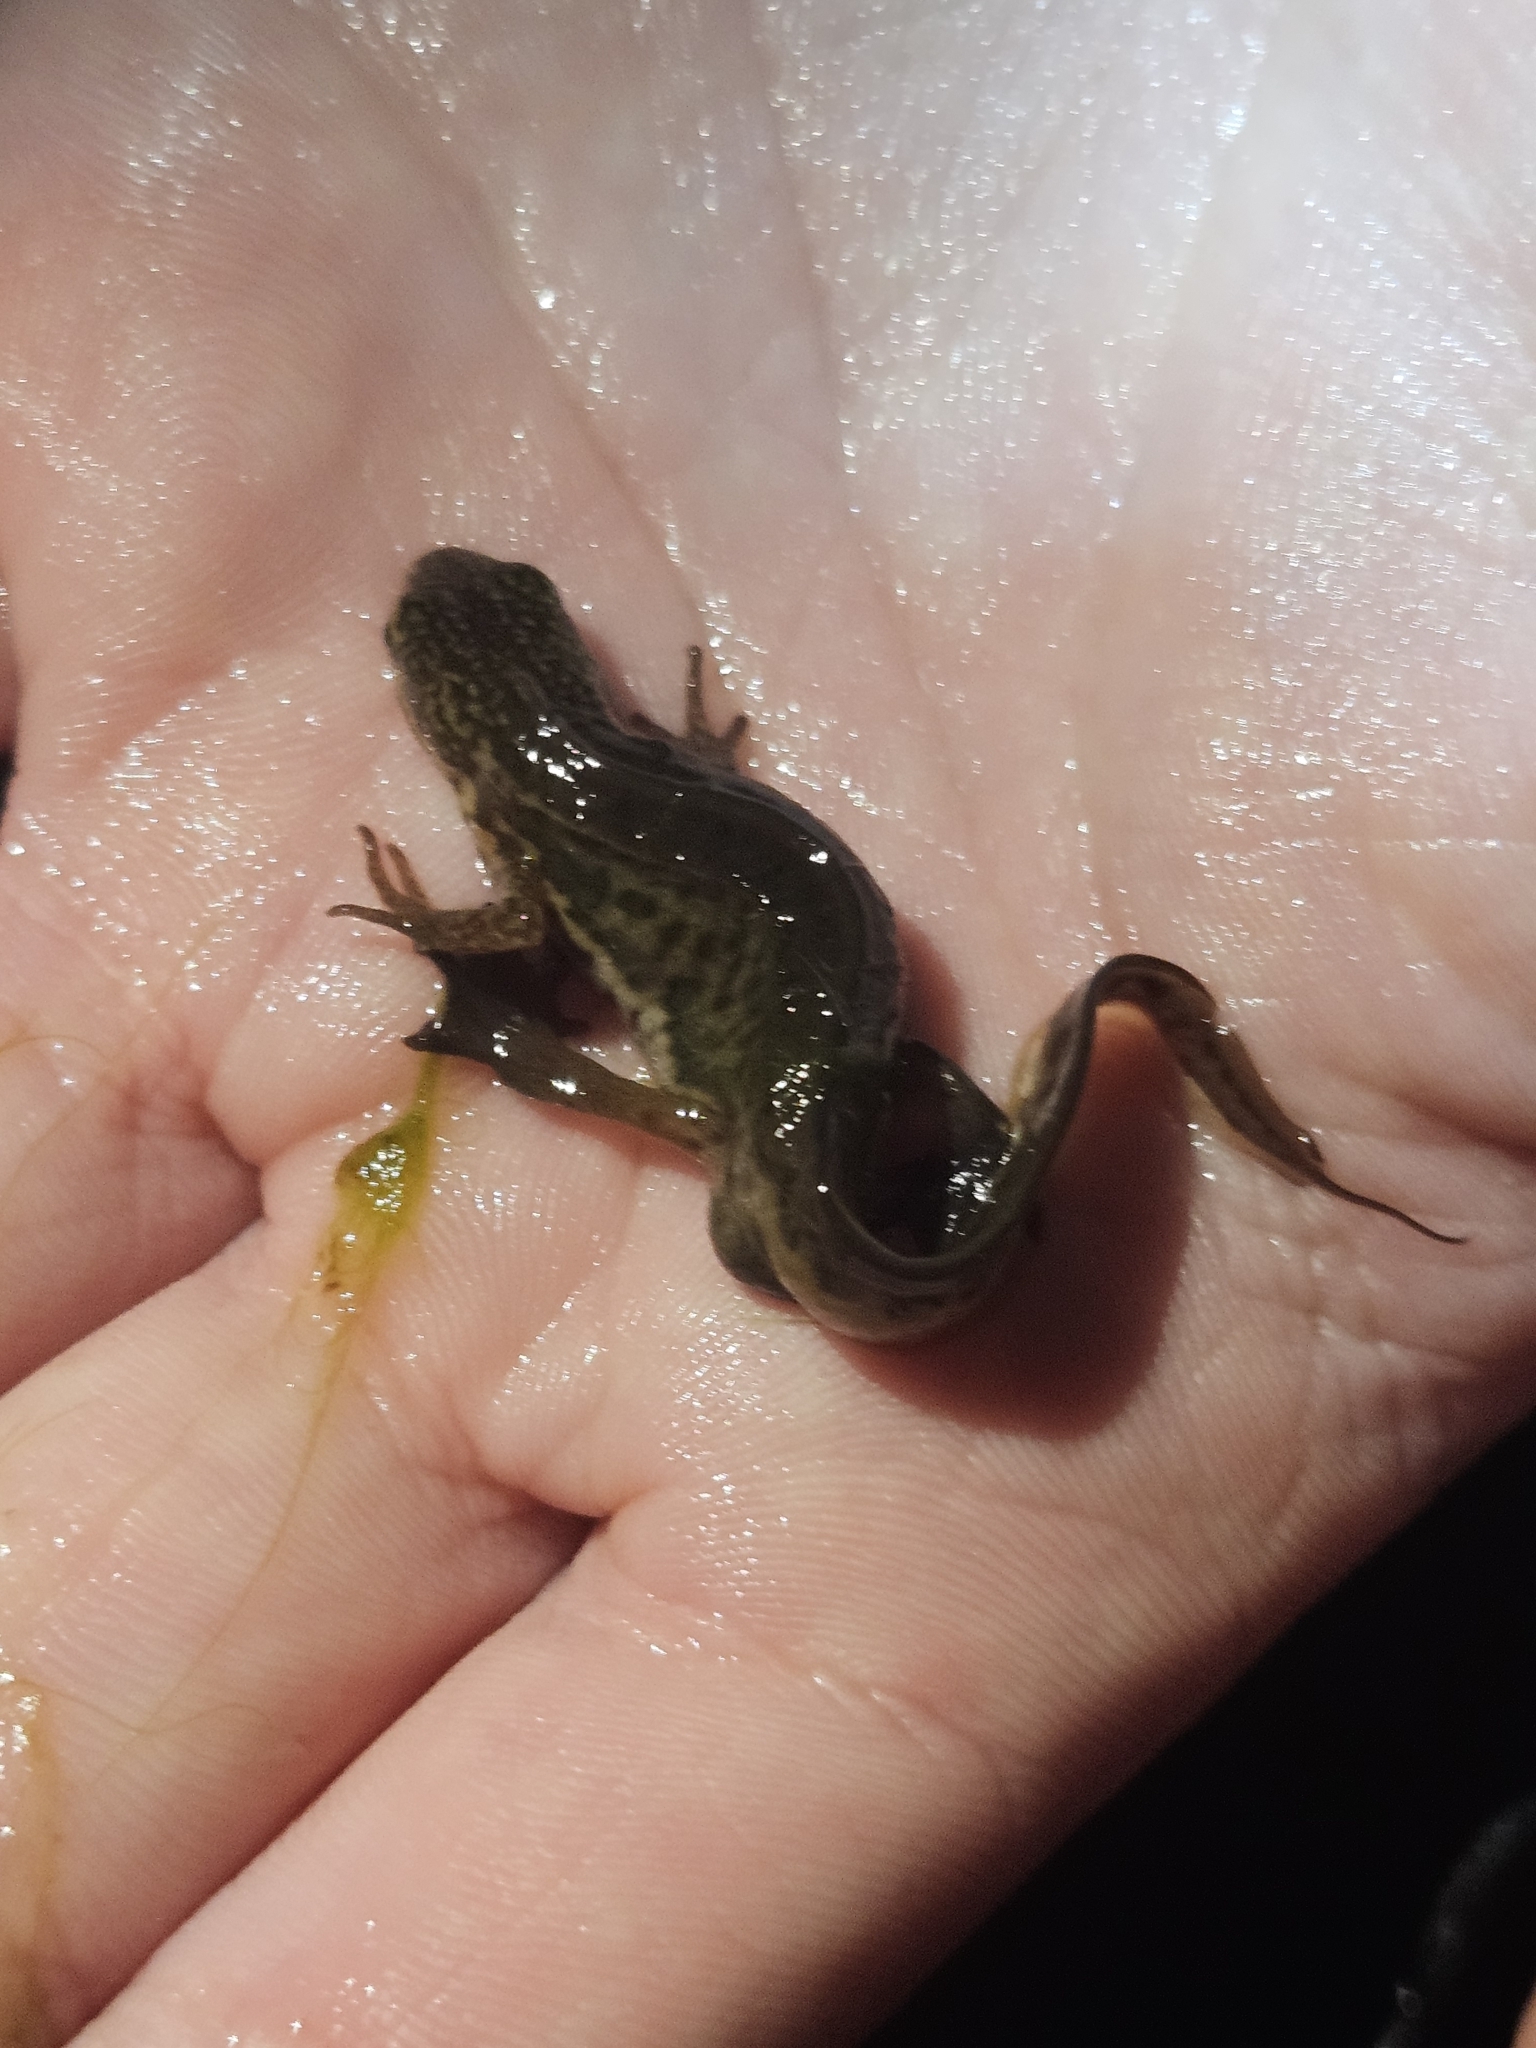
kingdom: Animalia
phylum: Chordata
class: Amphibia
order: Caudata
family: Salamandridae
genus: Lissotriton
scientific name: Lissotriton helveticus
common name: Palmate newt
